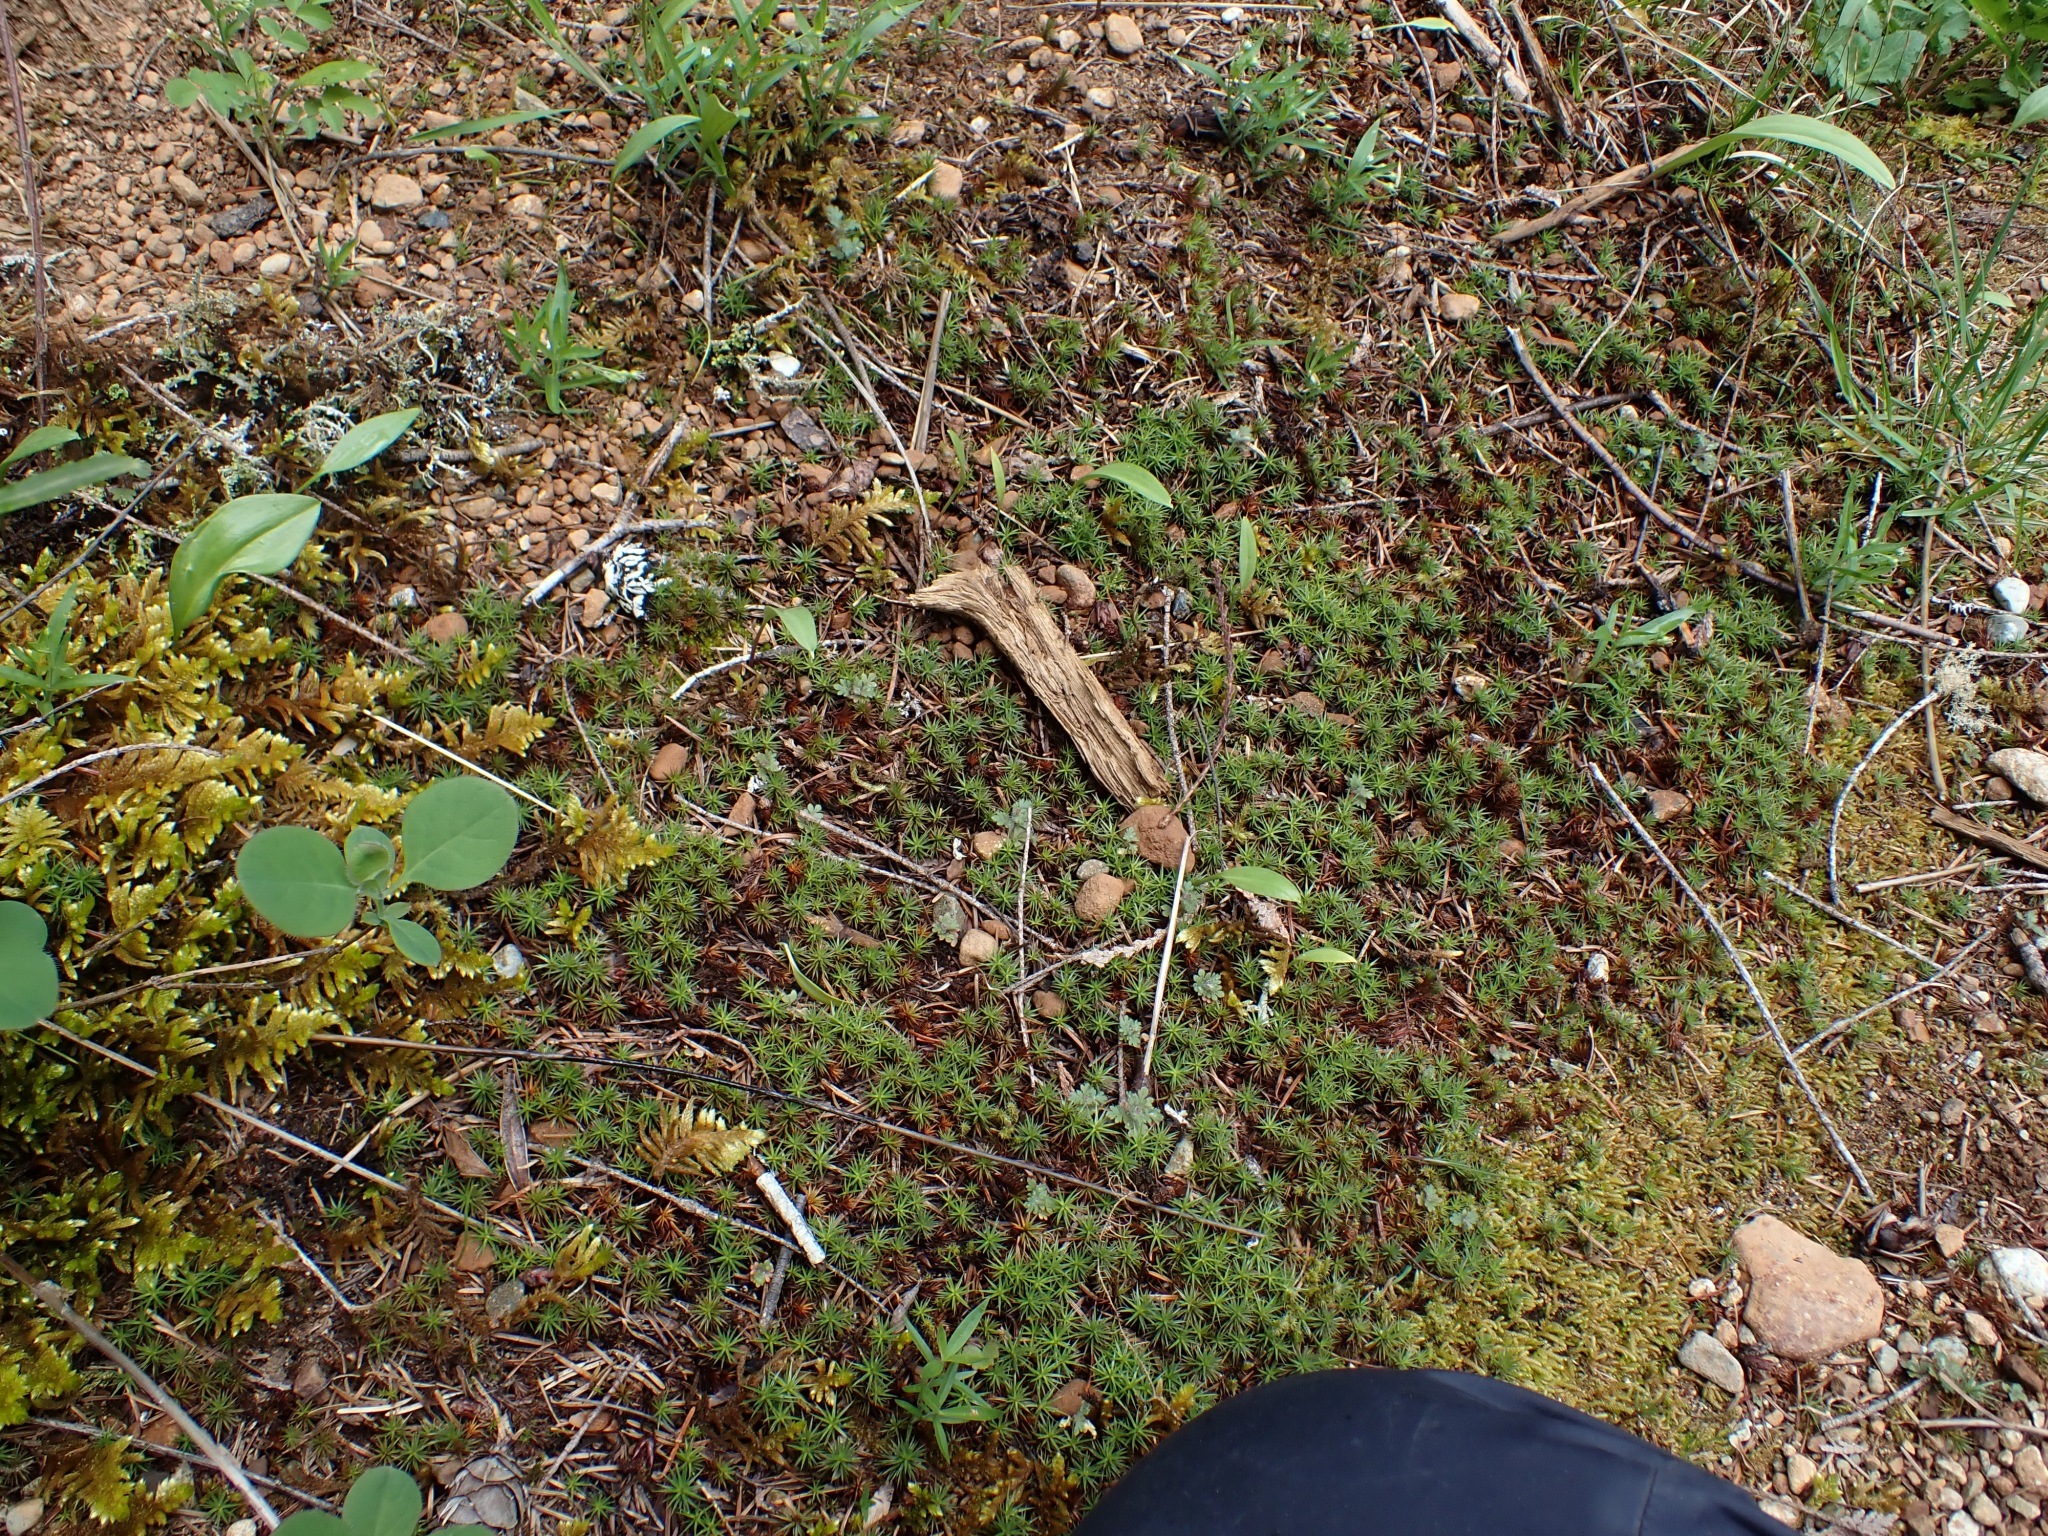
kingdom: Plantae
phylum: Bryophyta
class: Polytrichopsida
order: Polytrichales
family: Polytrichaceae
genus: Polytrichum
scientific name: Polytrichum juniperinum
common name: Juniper haircap moss
